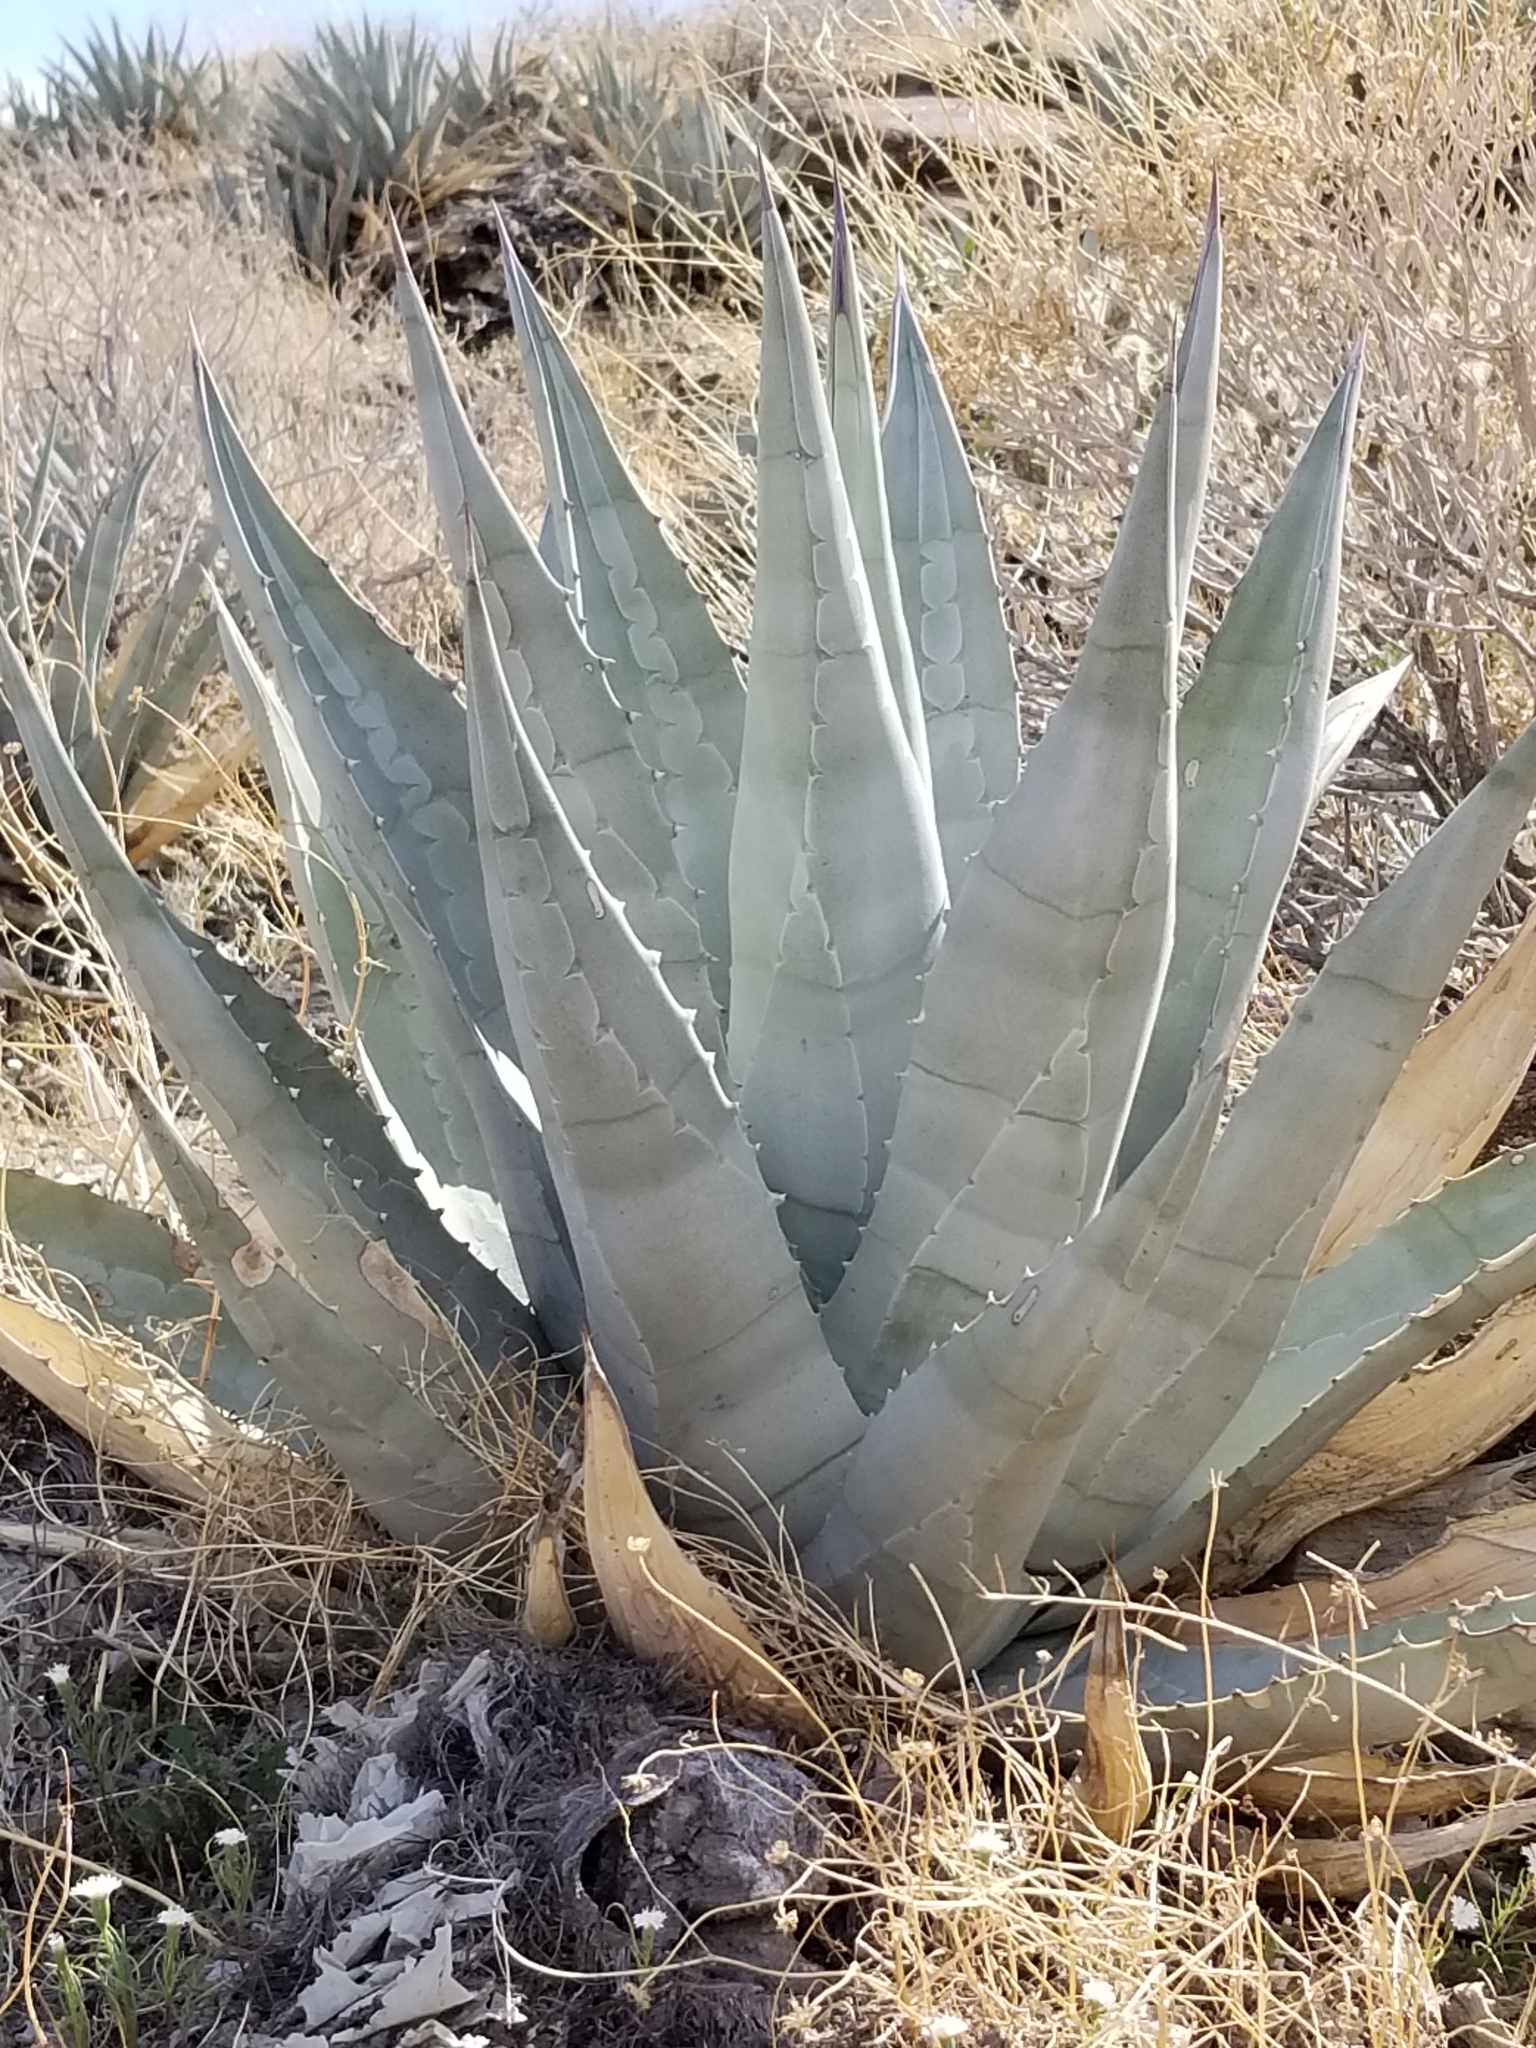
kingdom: Plantae
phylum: Tracheophyta
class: Liliopsida
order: Asparagales
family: Asparagaceae
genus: Agave
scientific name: Agave deserti
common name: Desert agave
